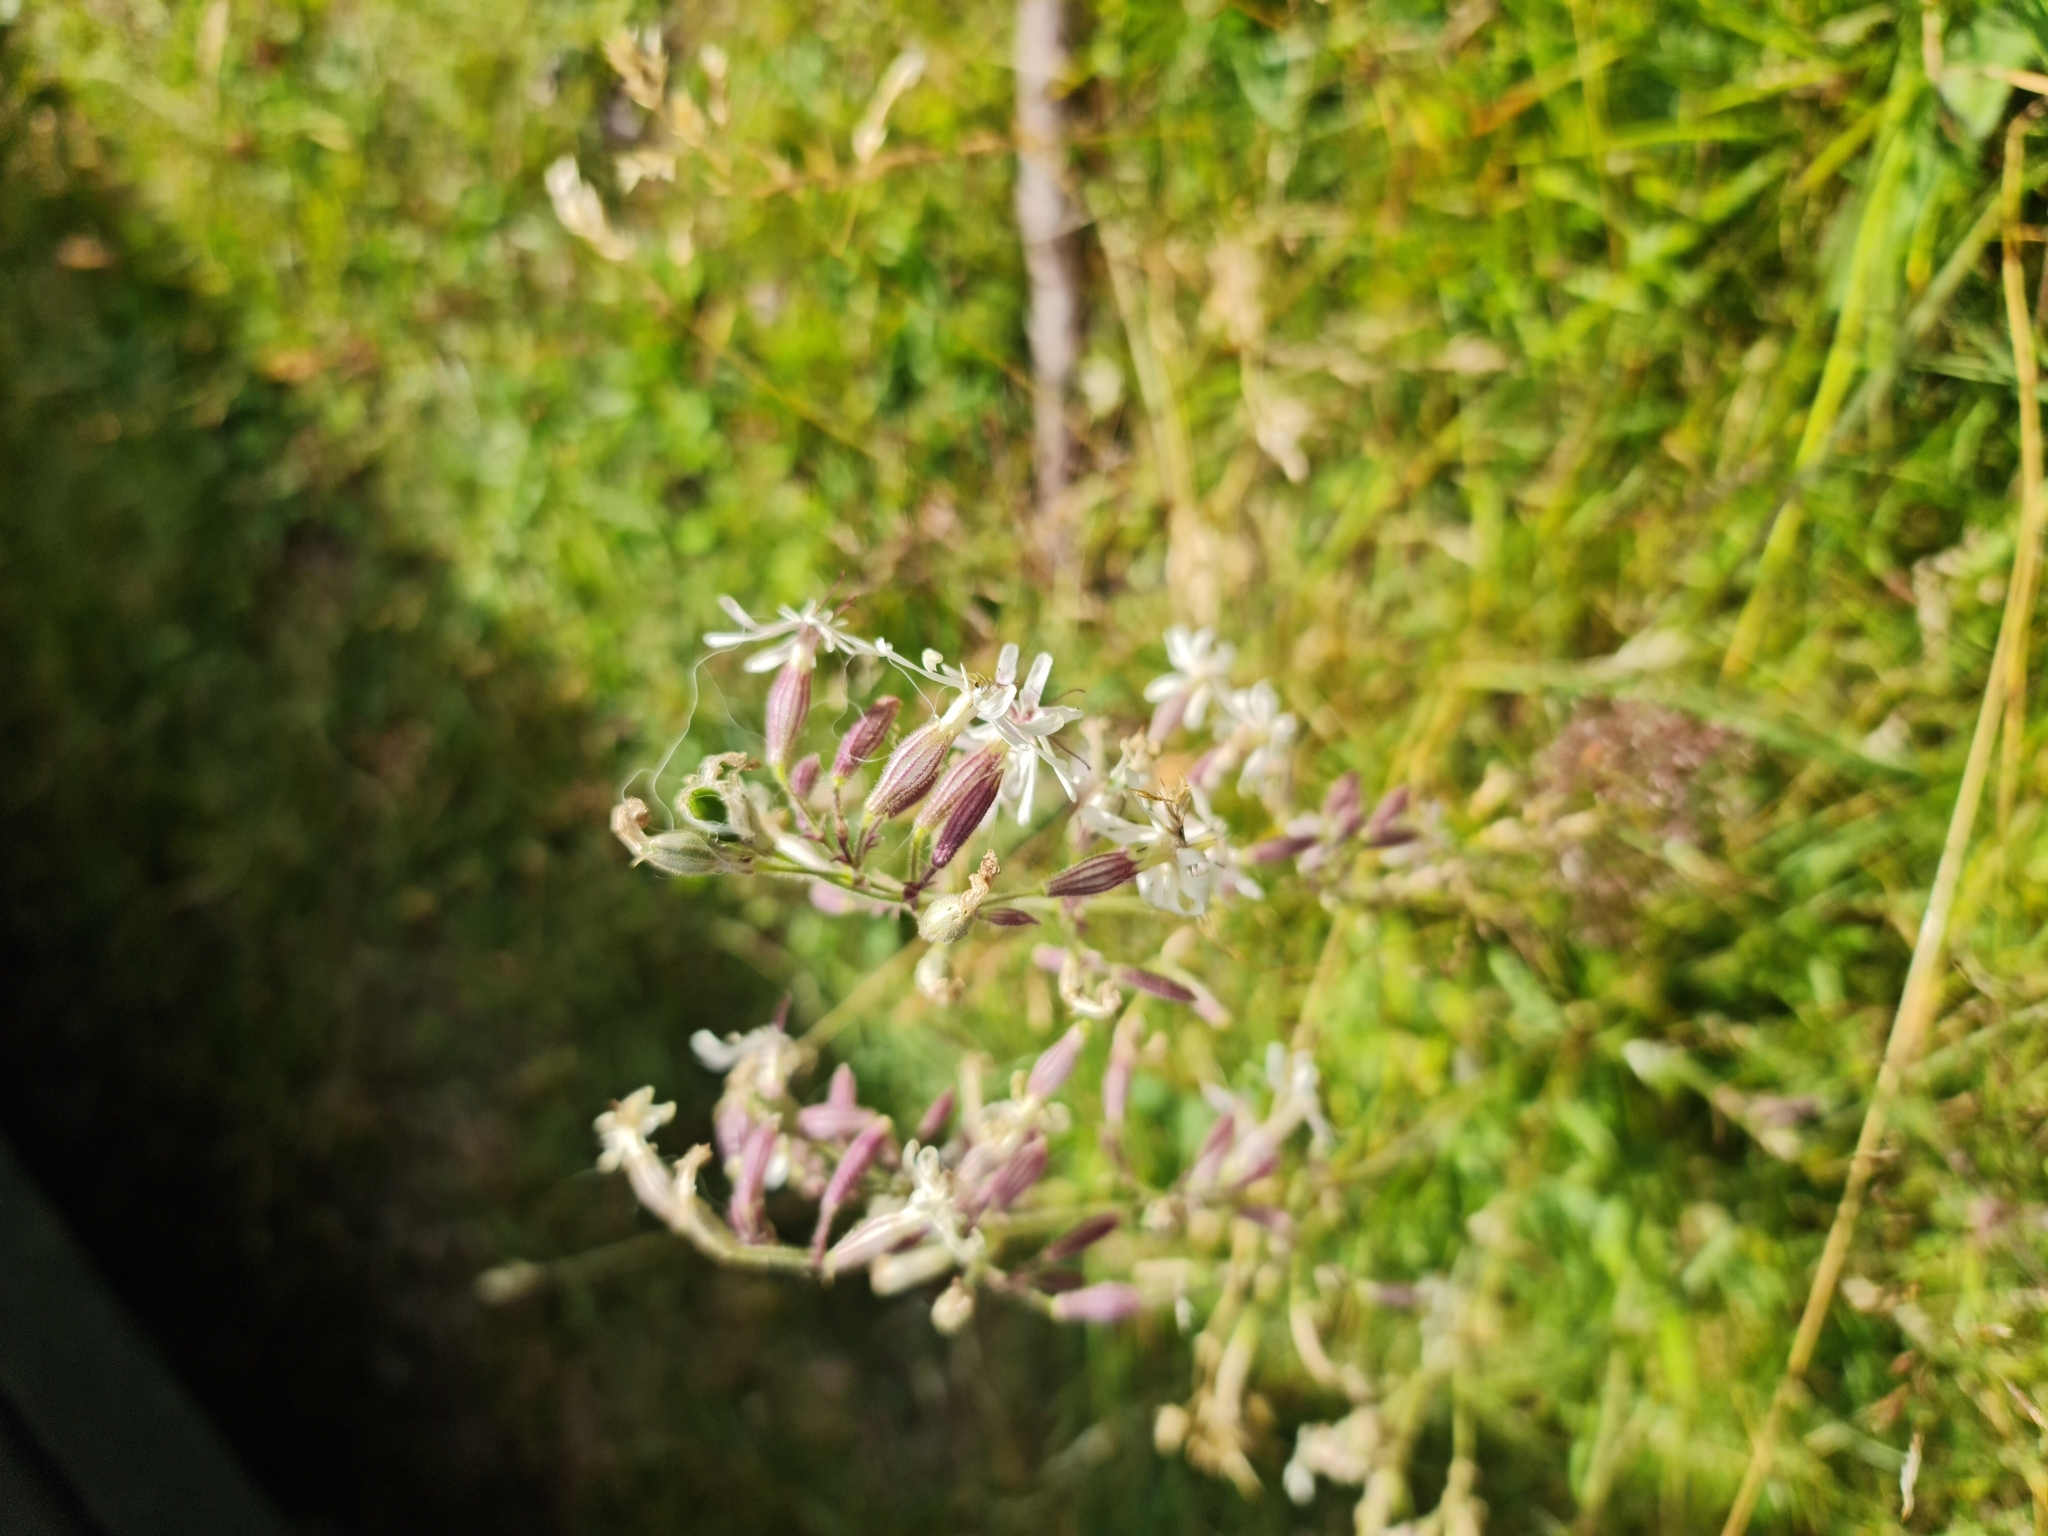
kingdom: Plantae
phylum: Tracheophyta
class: Magnoliopsida
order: Caryophyllales
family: Caryophyllaceae
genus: Silene
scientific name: Silene nutans
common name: Nottingham catchfly
